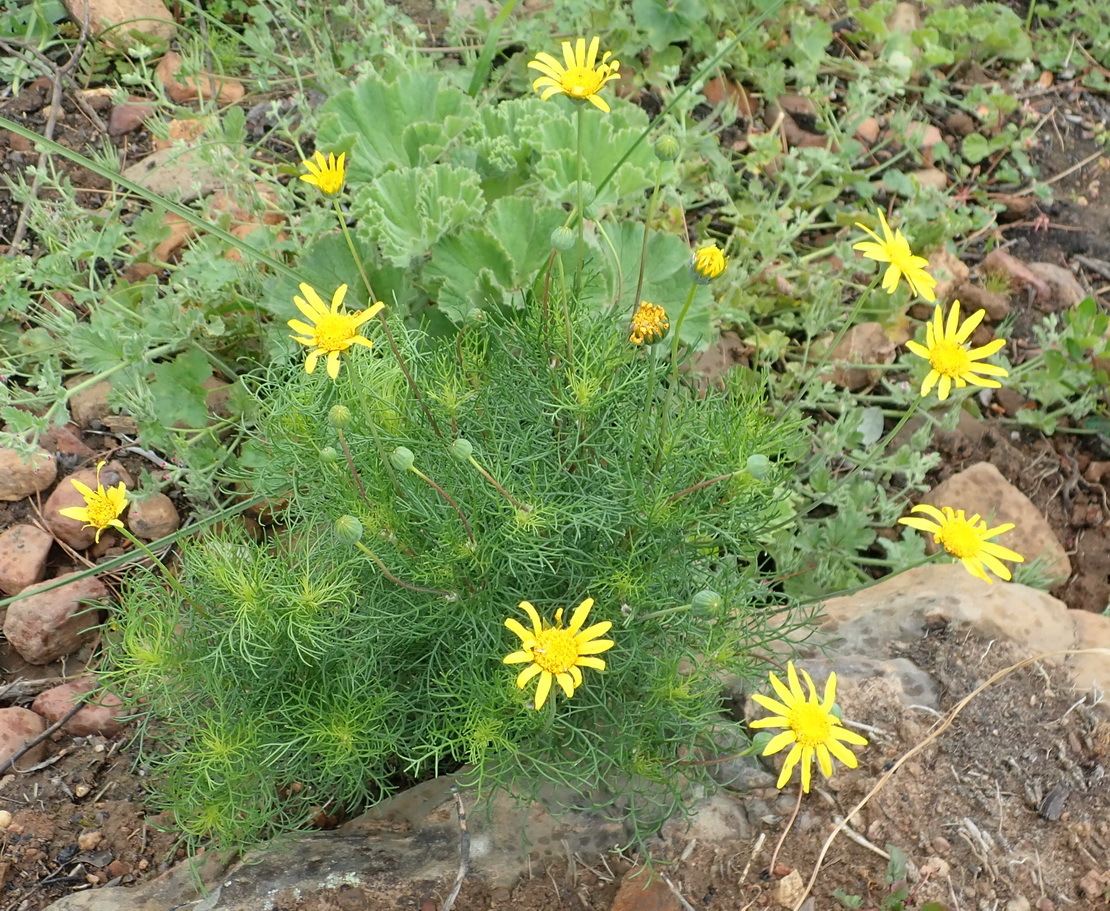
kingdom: Plantae
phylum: Tracheophyta
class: Magnoliopsida
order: Asterales
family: Asteraceae
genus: Euryops
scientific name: Euryops abrotanifolius
